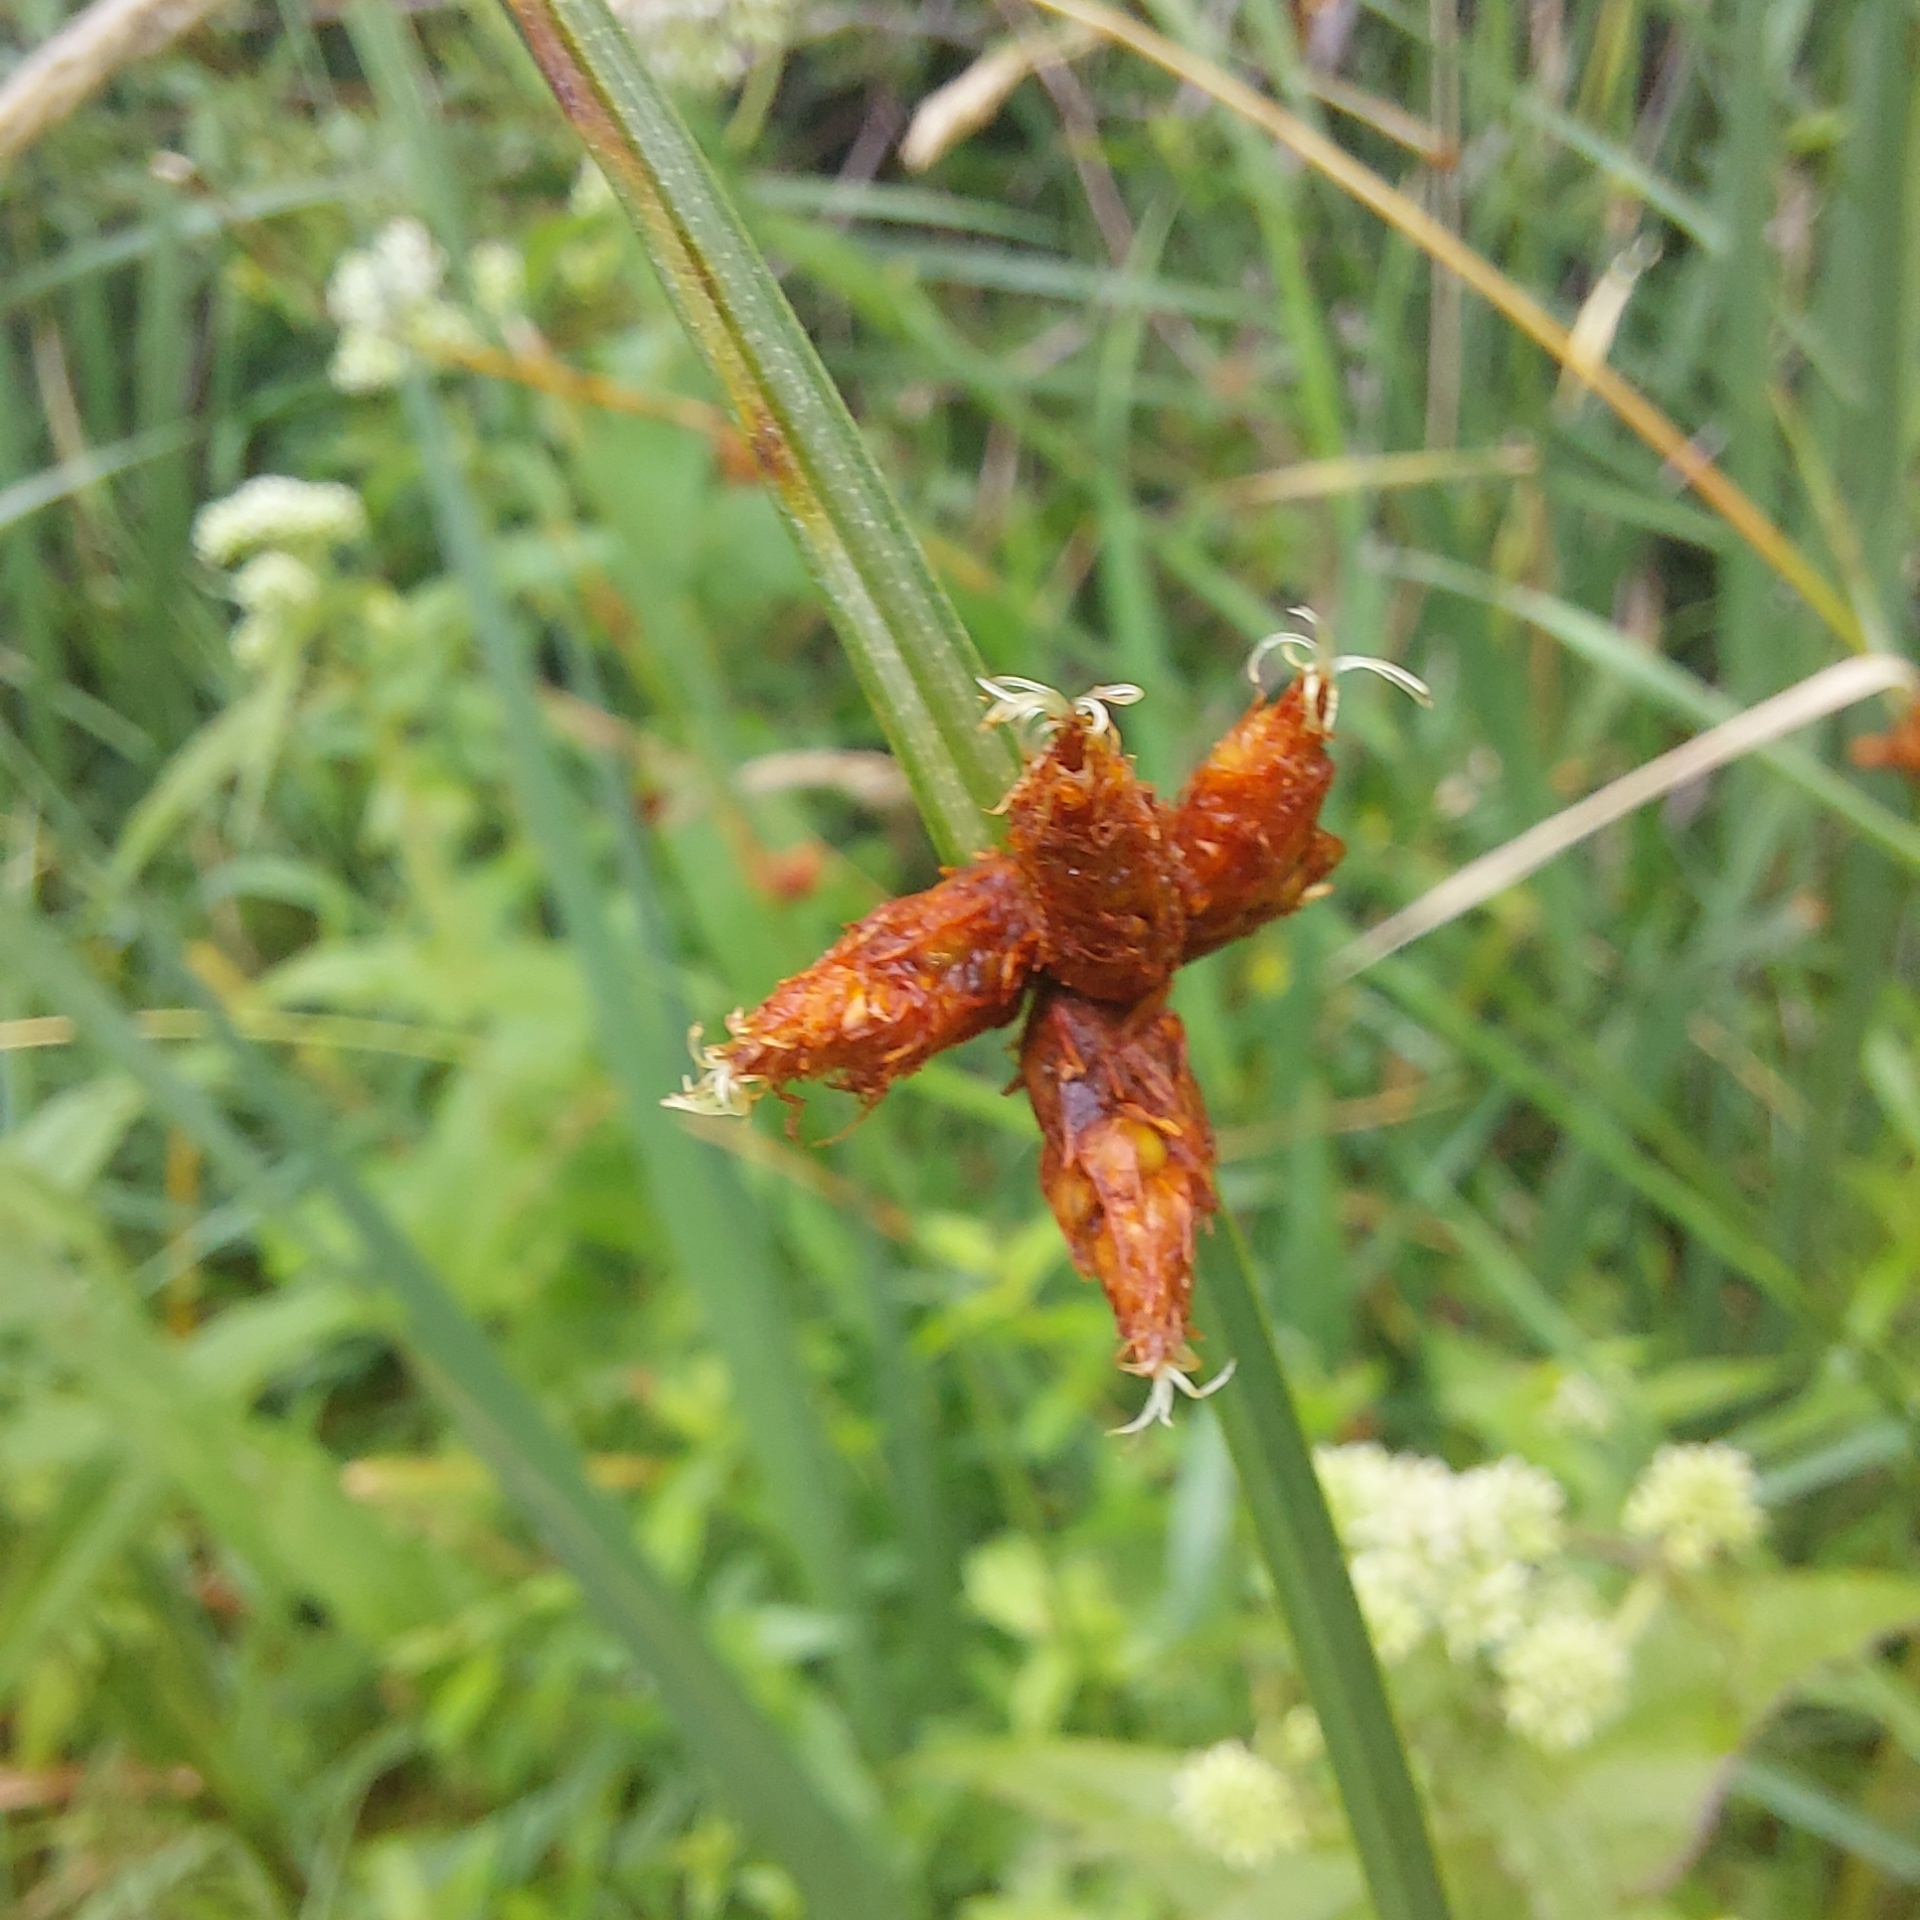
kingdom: Plantae
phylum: Tracheophyta
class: Liliopsida
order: Poales
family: Cyperaceae
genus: Schoenoplectus
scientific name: Schoenoplectus pungens
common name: Sharp club-rush
